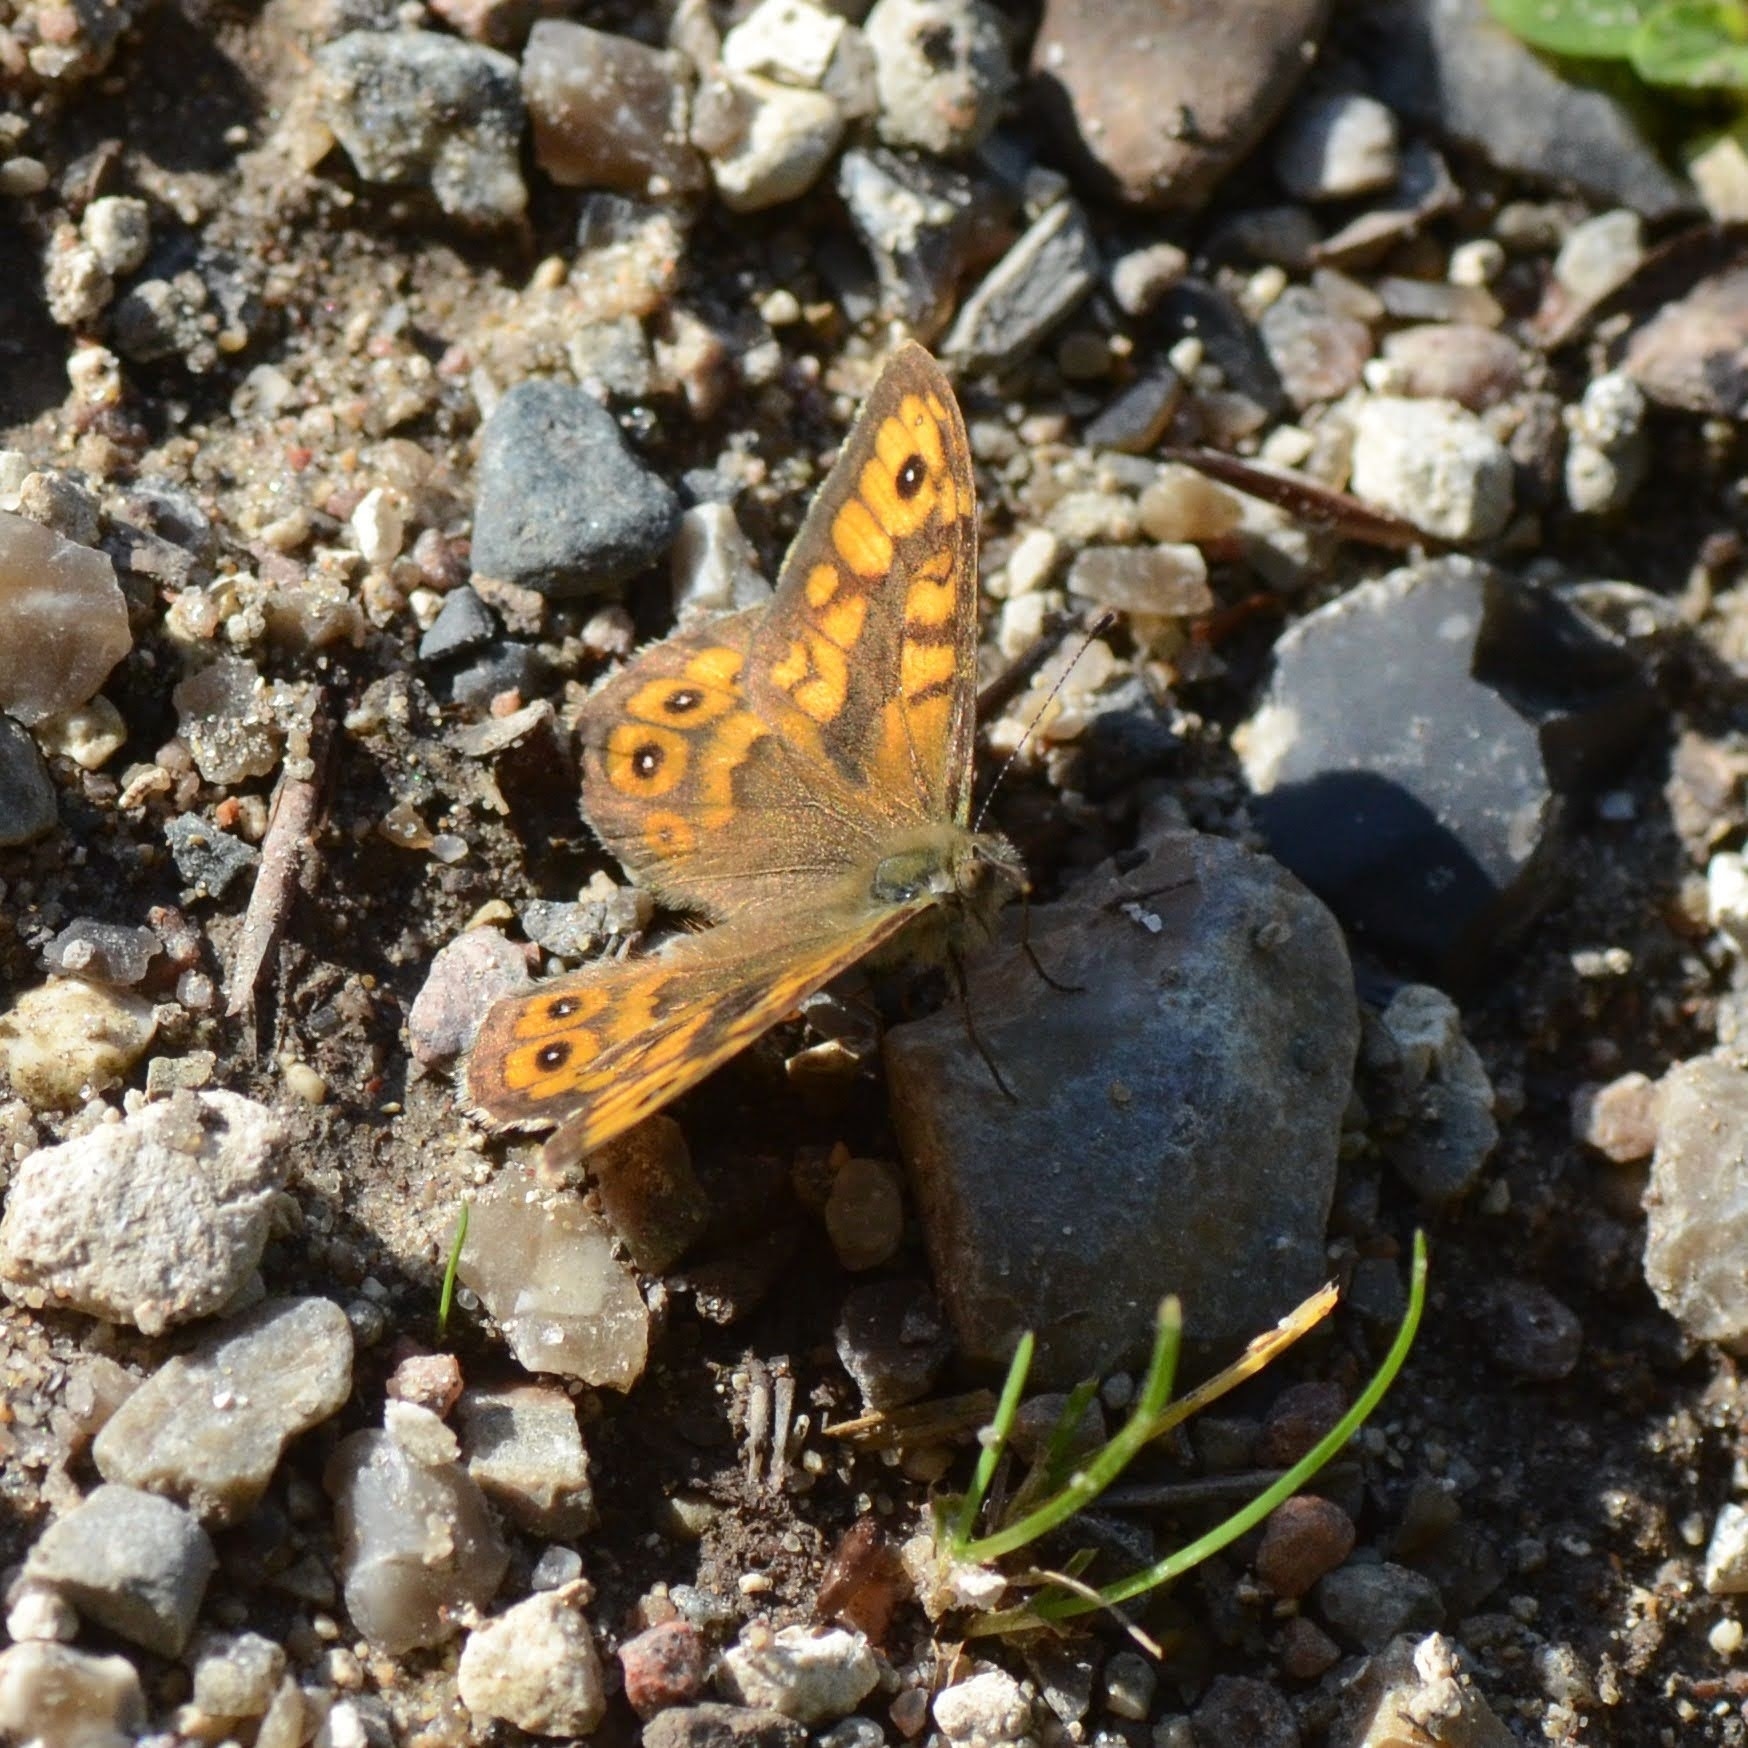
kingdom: Animalia
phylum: Arthropoda
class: Insecta
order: Lepidoptera
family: Nymphalidae
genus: Pararge
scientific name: Pararge Lasiommata megera
